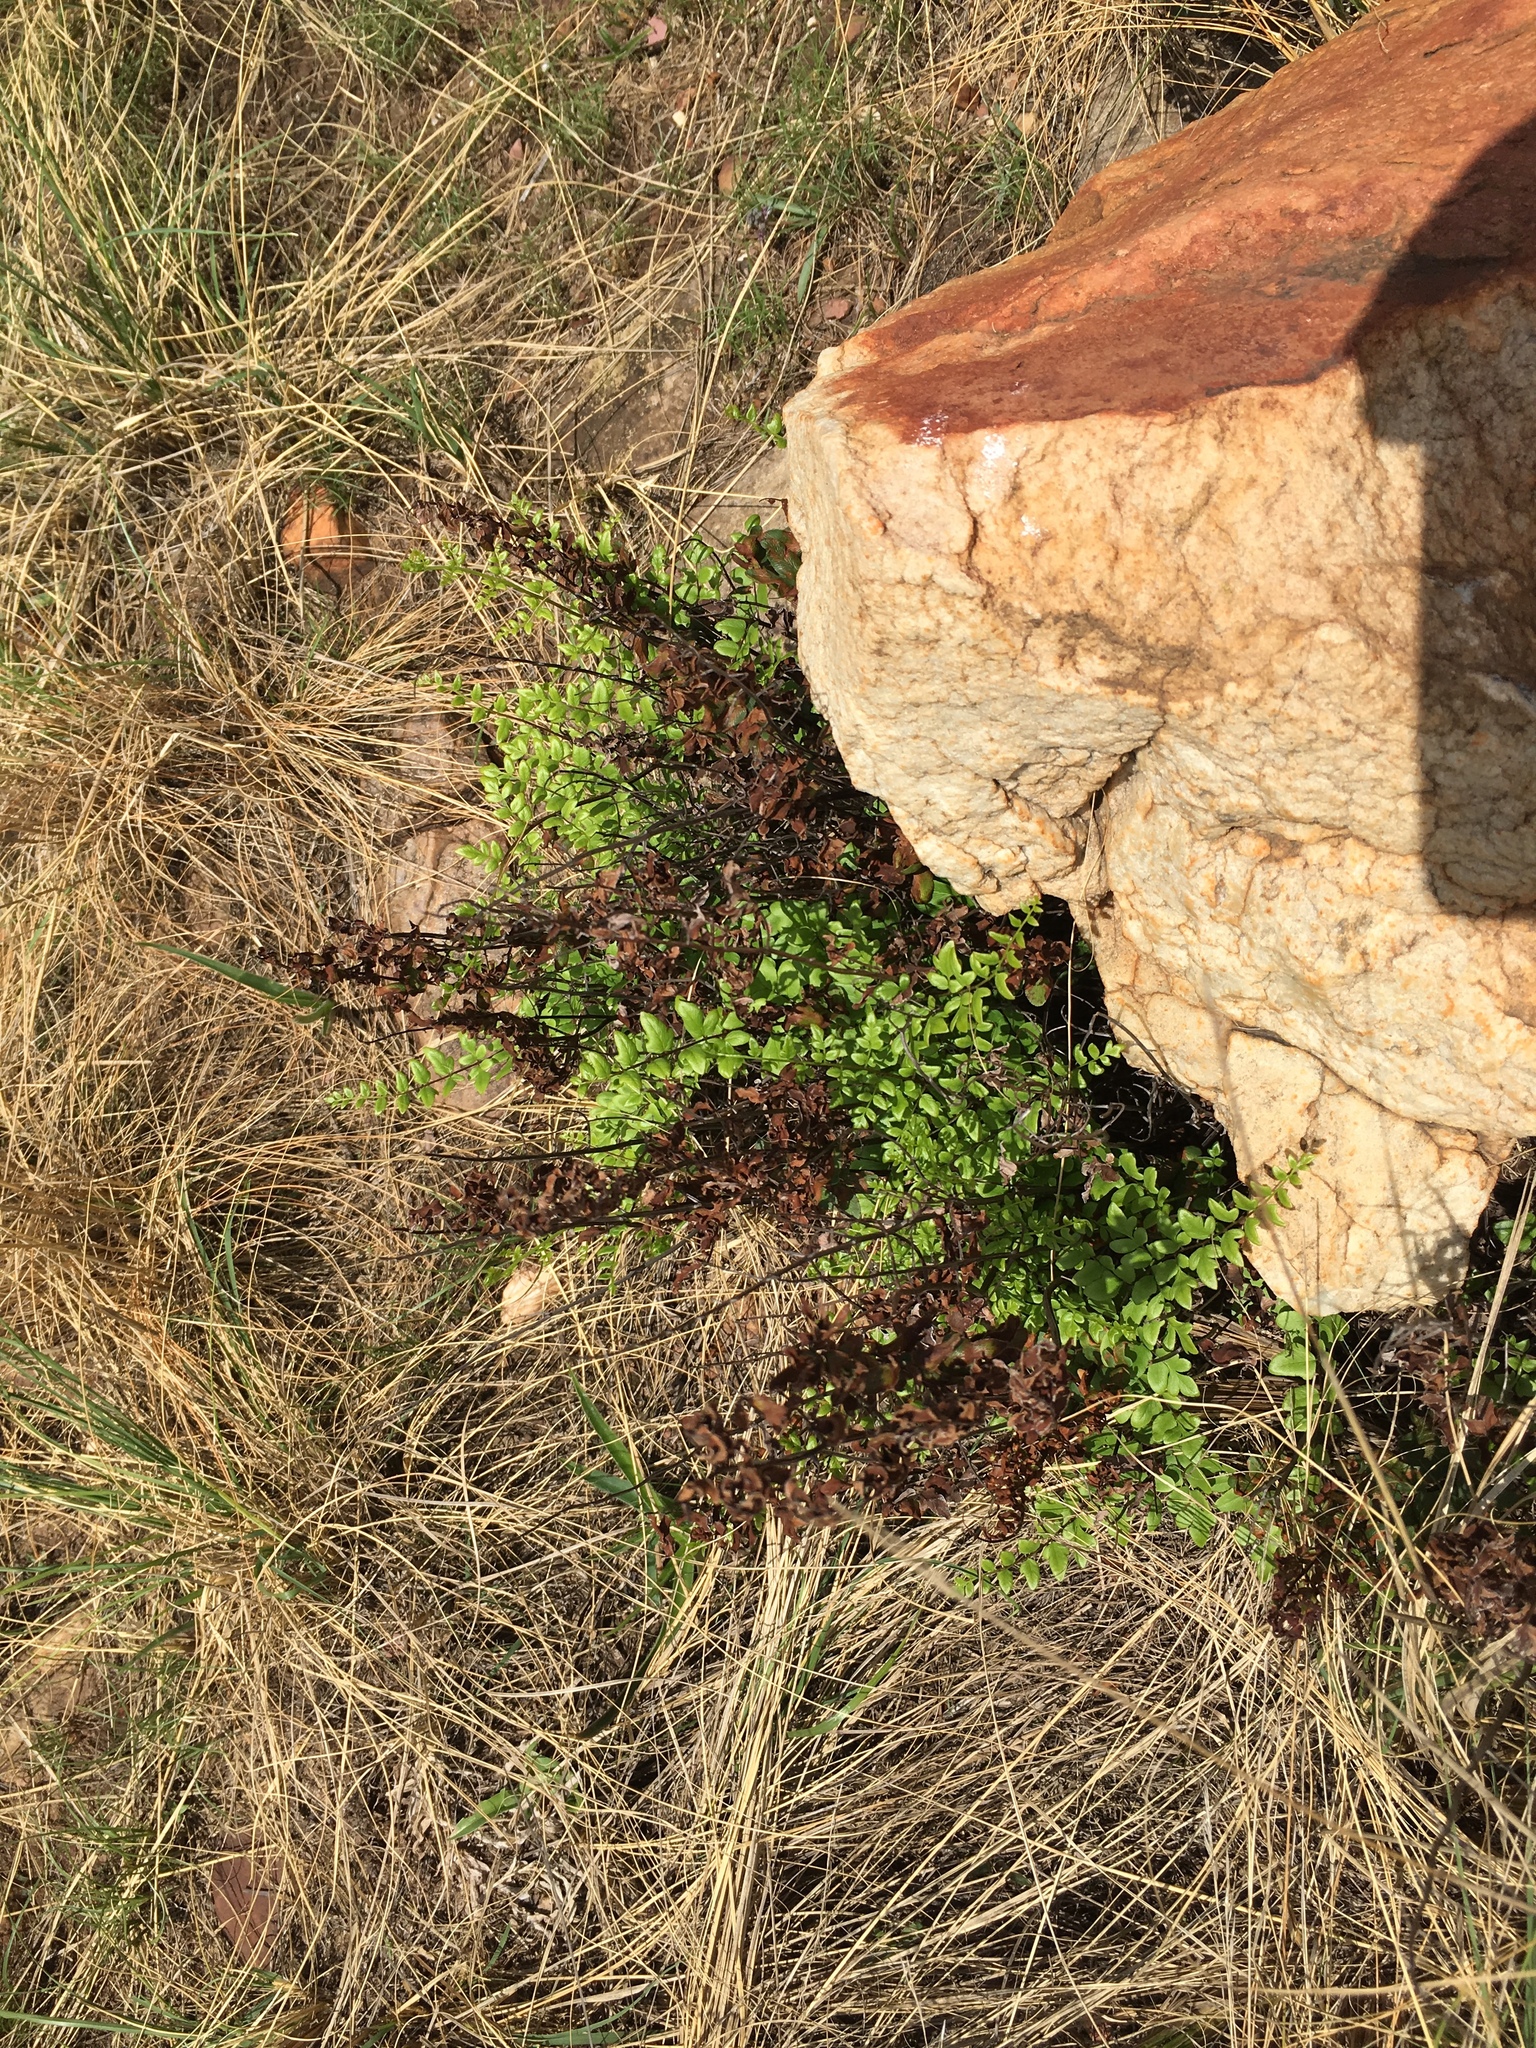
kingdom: Plantae
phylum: Tracheophyta
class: Polypodiopsida
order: Polypodiales
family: Pteridaceae
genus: Pellaea
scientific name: Pellaea calomelanos
